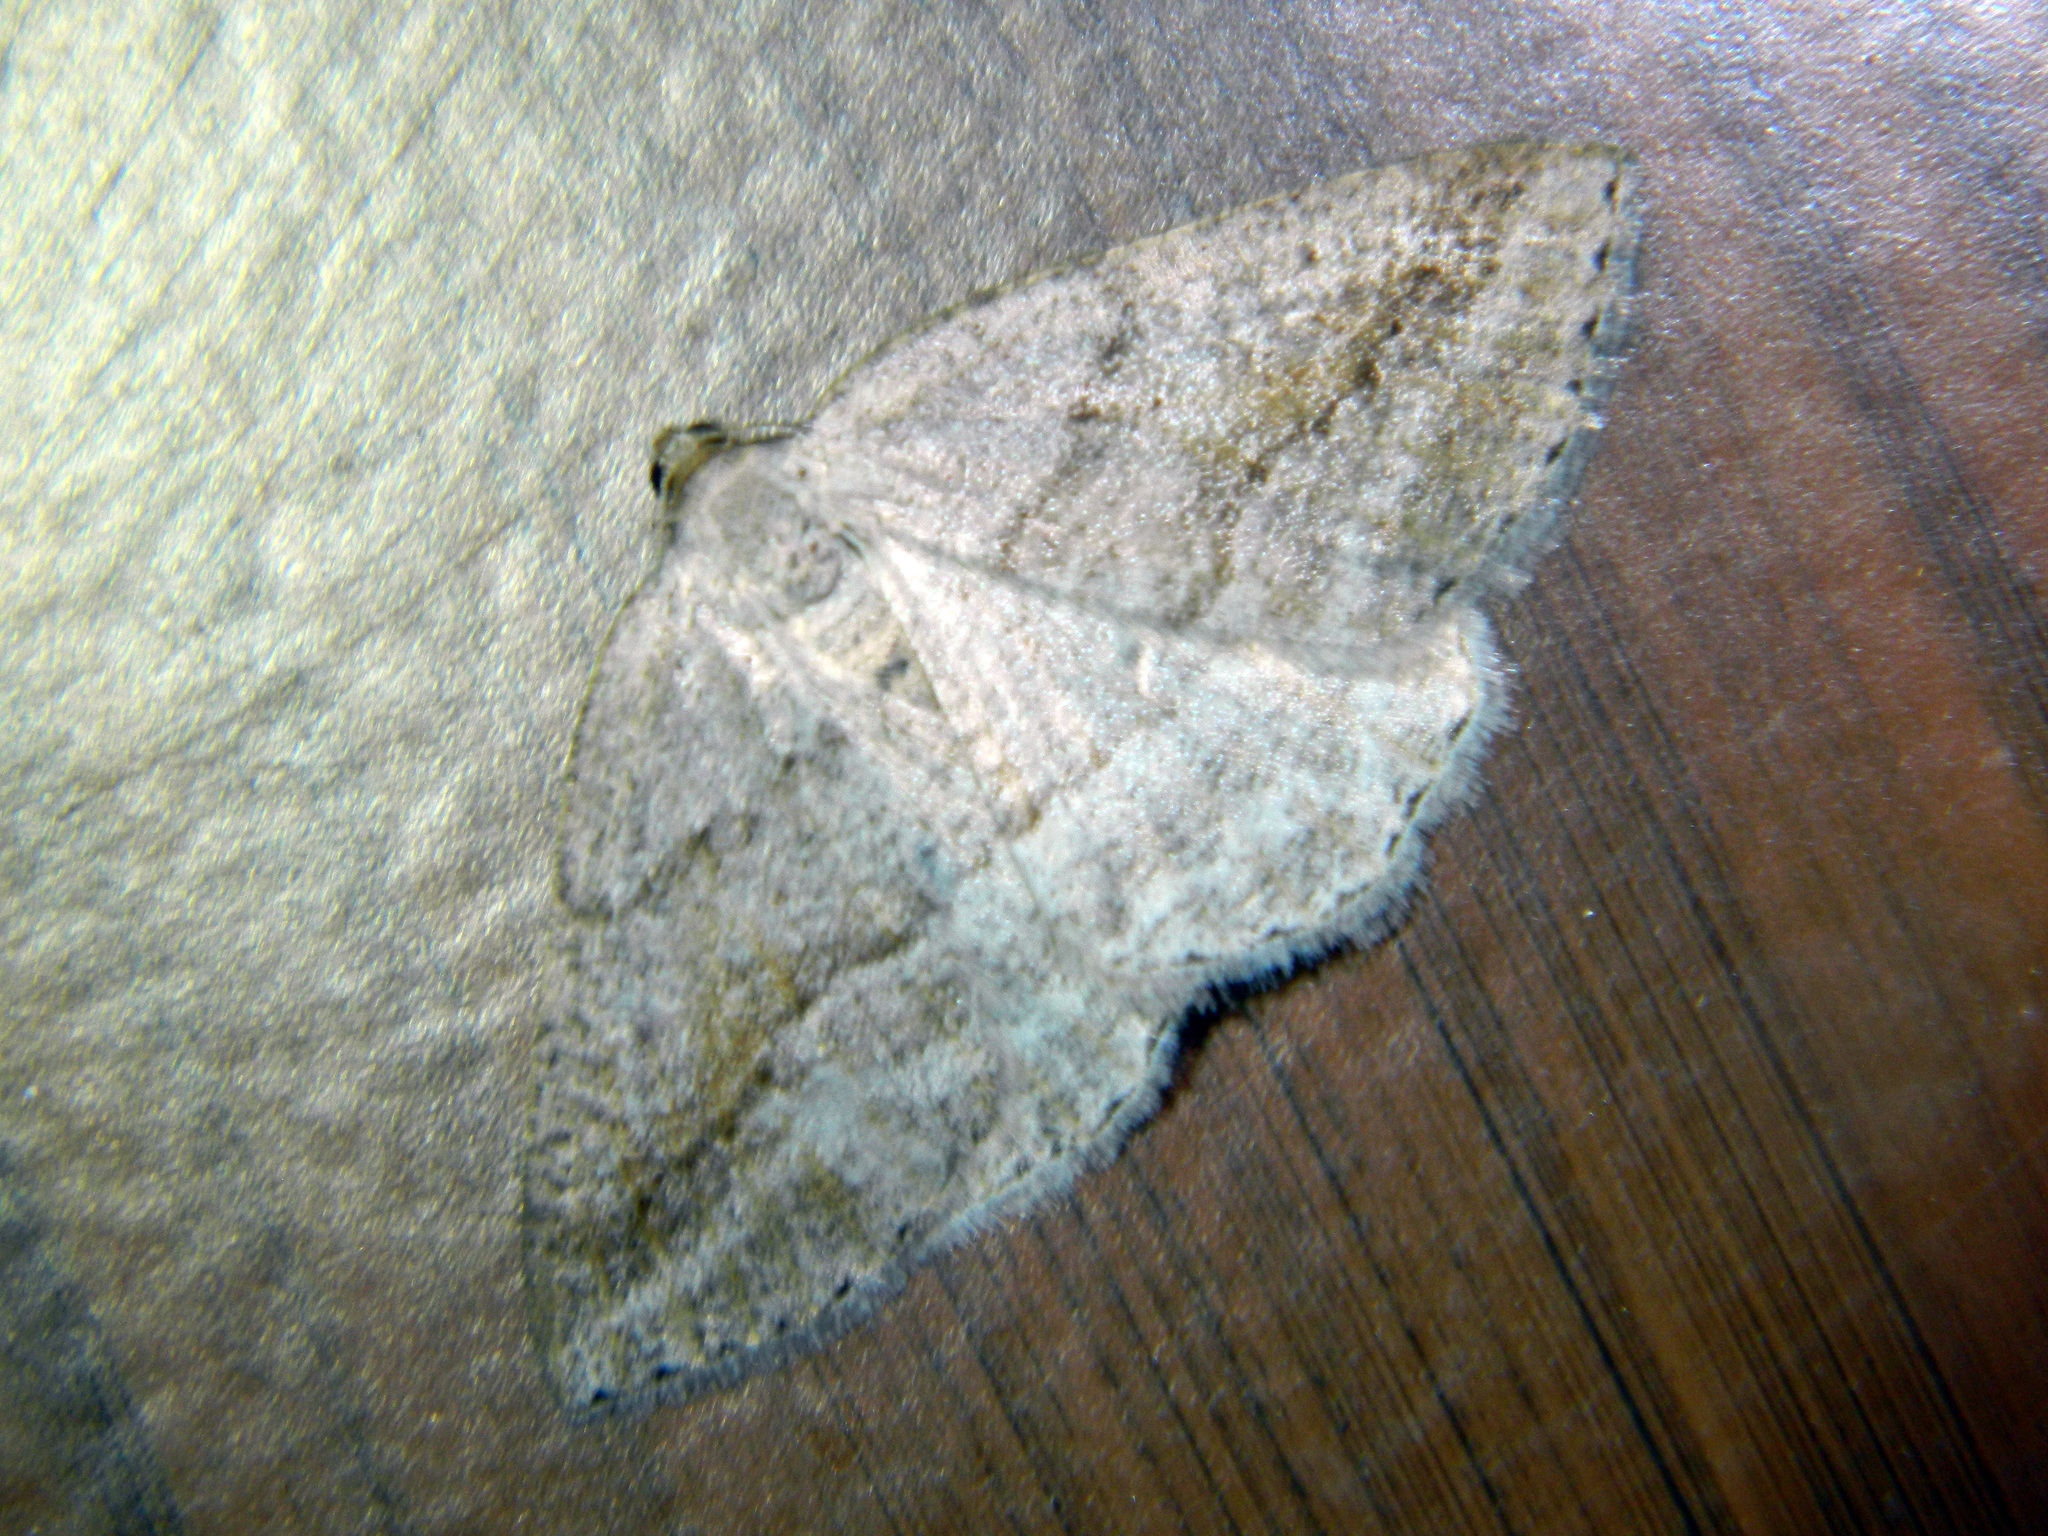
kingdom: Animalia
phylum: Arthropoda
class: Insecta
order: Lepidoptera
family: Geometridae
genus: Tacparia
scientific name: Tacparia detersata
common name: Pale alder moth
